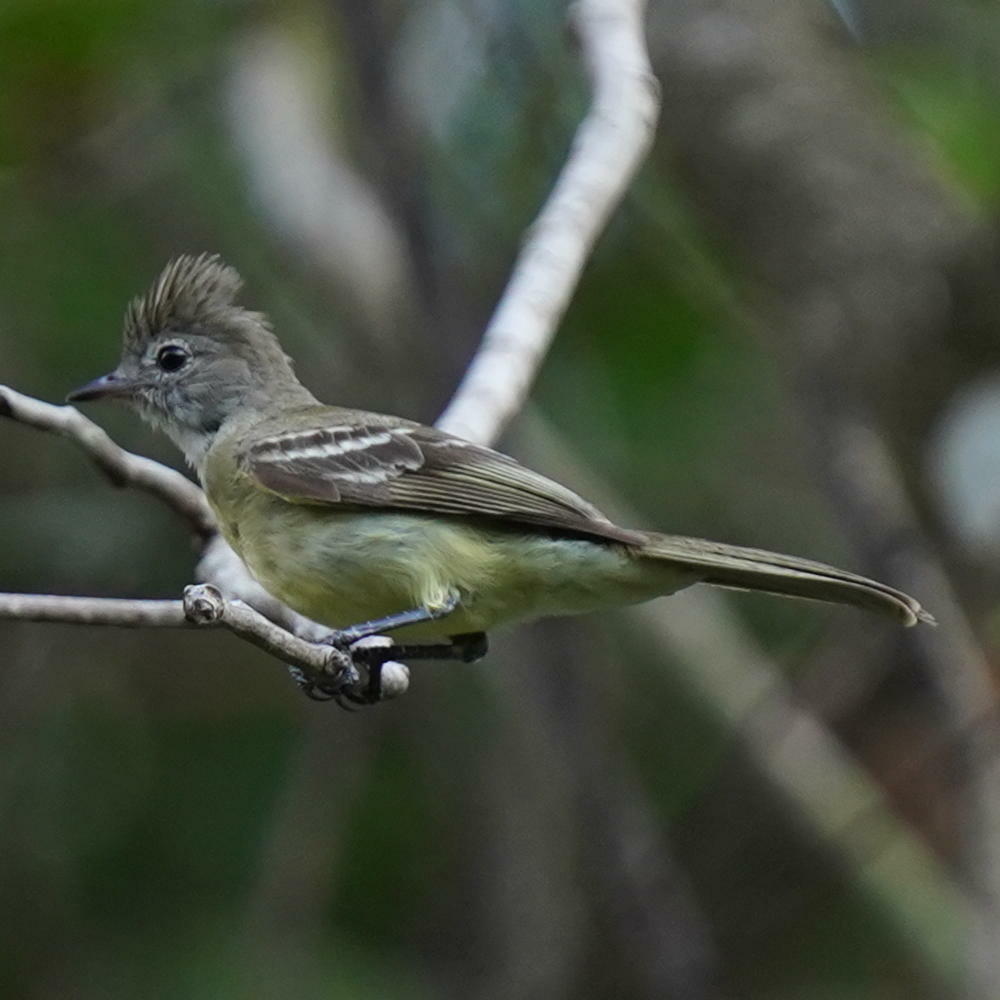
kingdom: Animalia
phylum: Chordata
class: Aves
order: Passeriformes
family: Tyrannidae
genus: Elaenia
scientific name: Elaenia flavogaster
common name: Yellow-bellied elaenia
